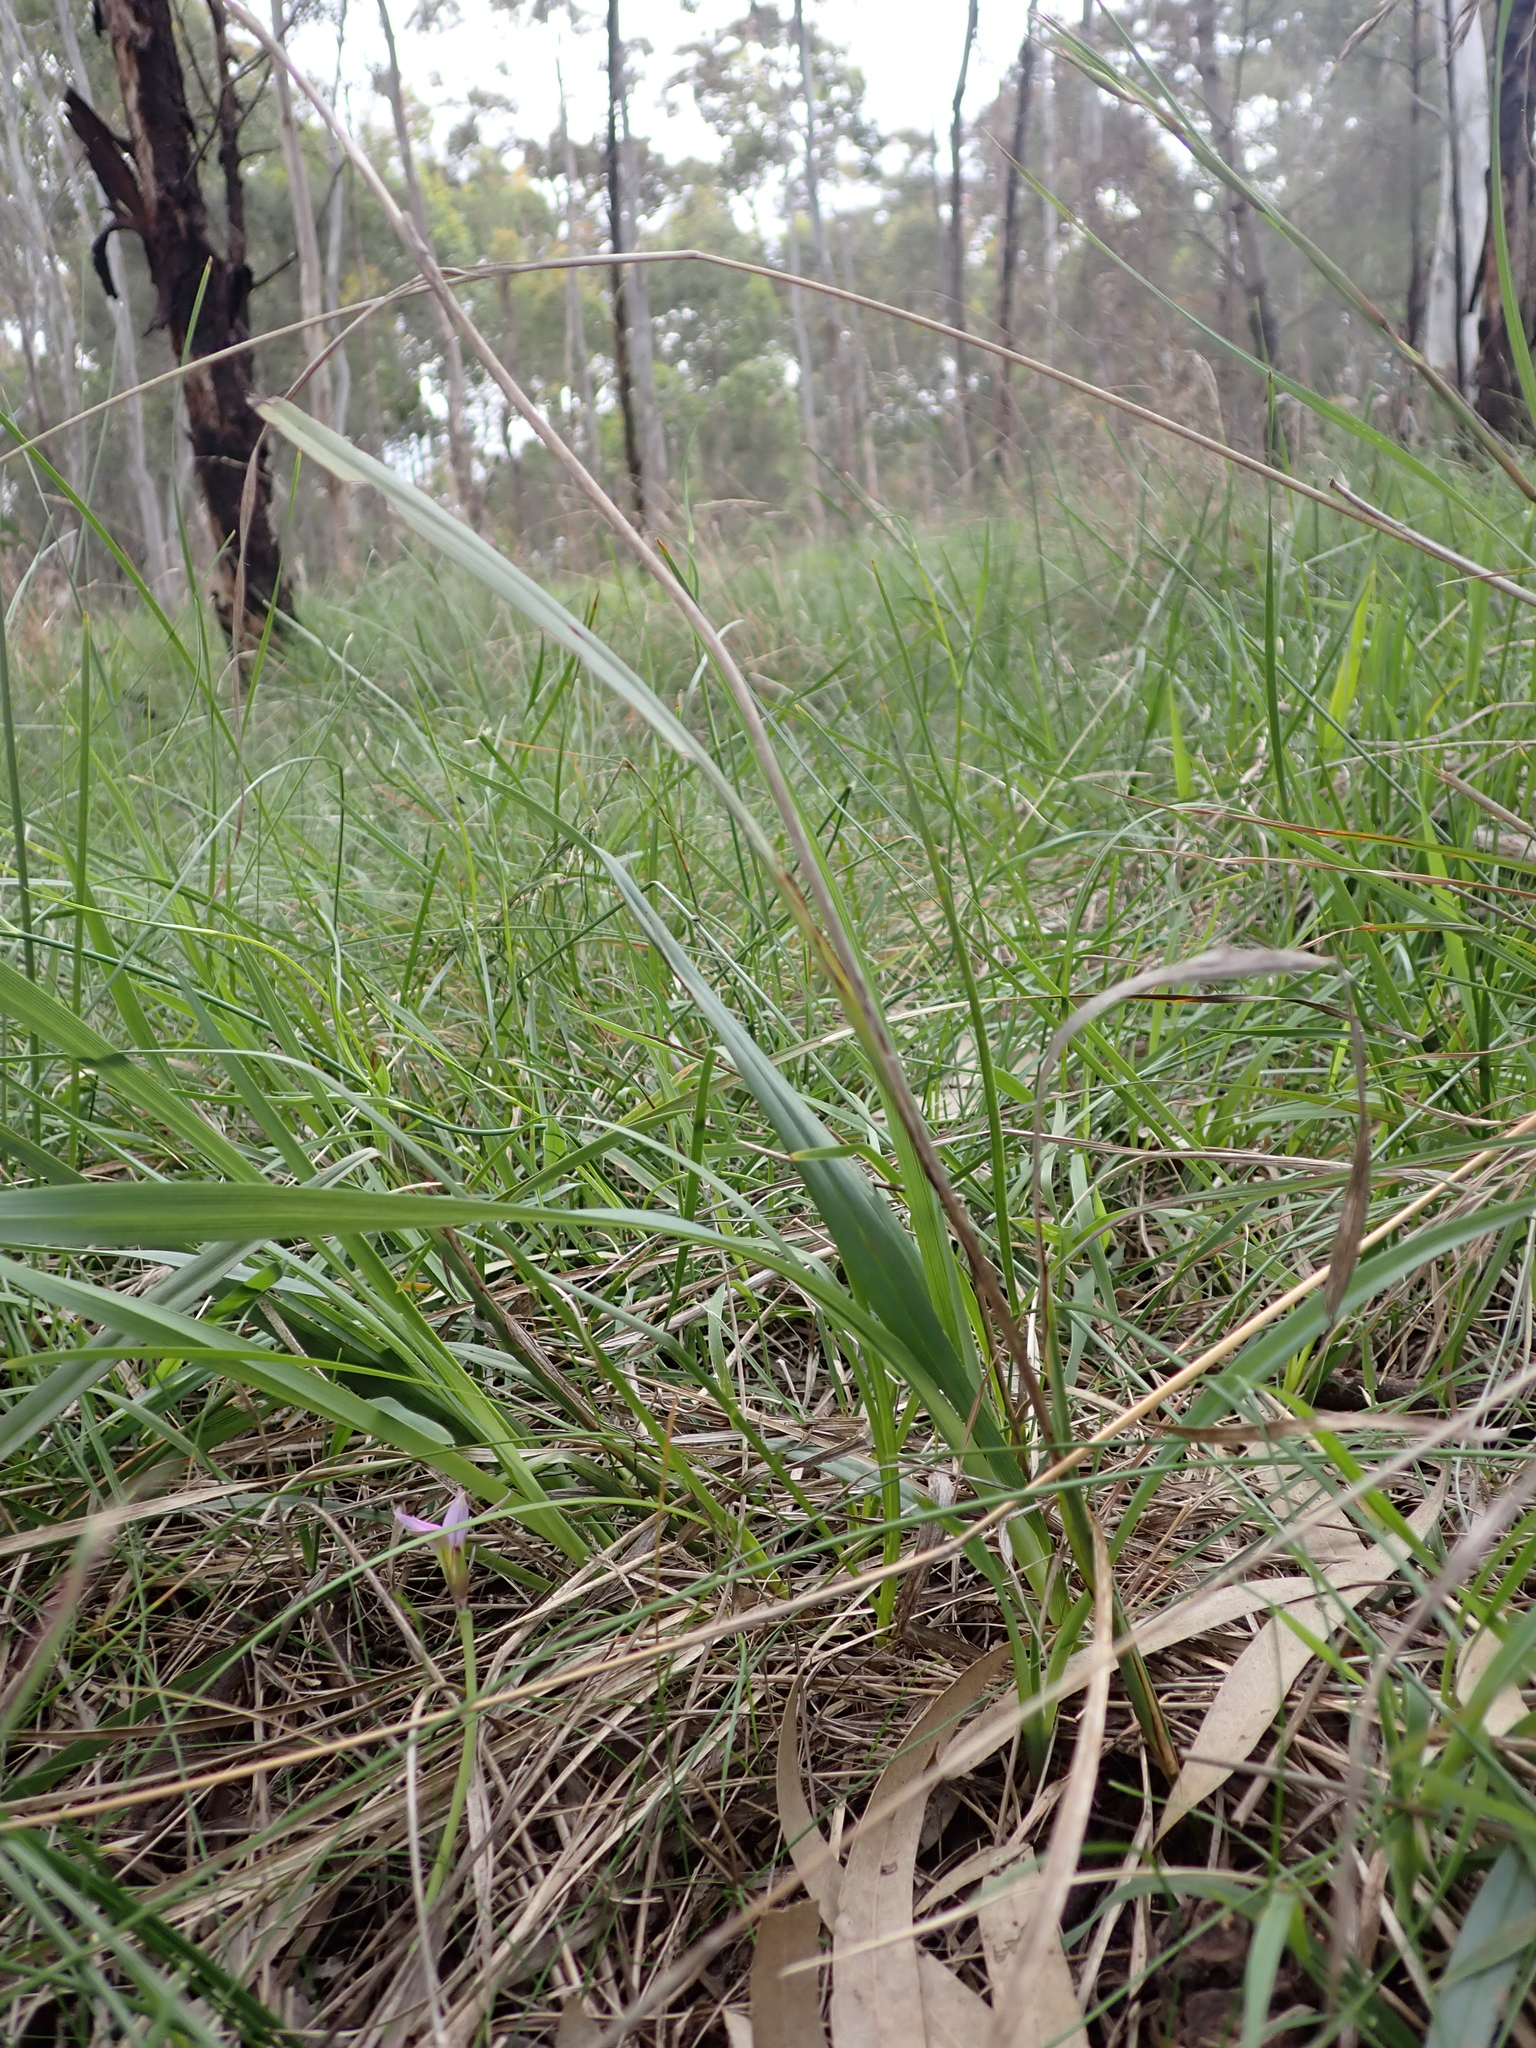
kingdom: Plantae
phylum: Tracheophyta
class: Liliopsida
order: Asparagales
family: Asphodelaceae
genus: Dianella
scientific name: Dianella amoena
